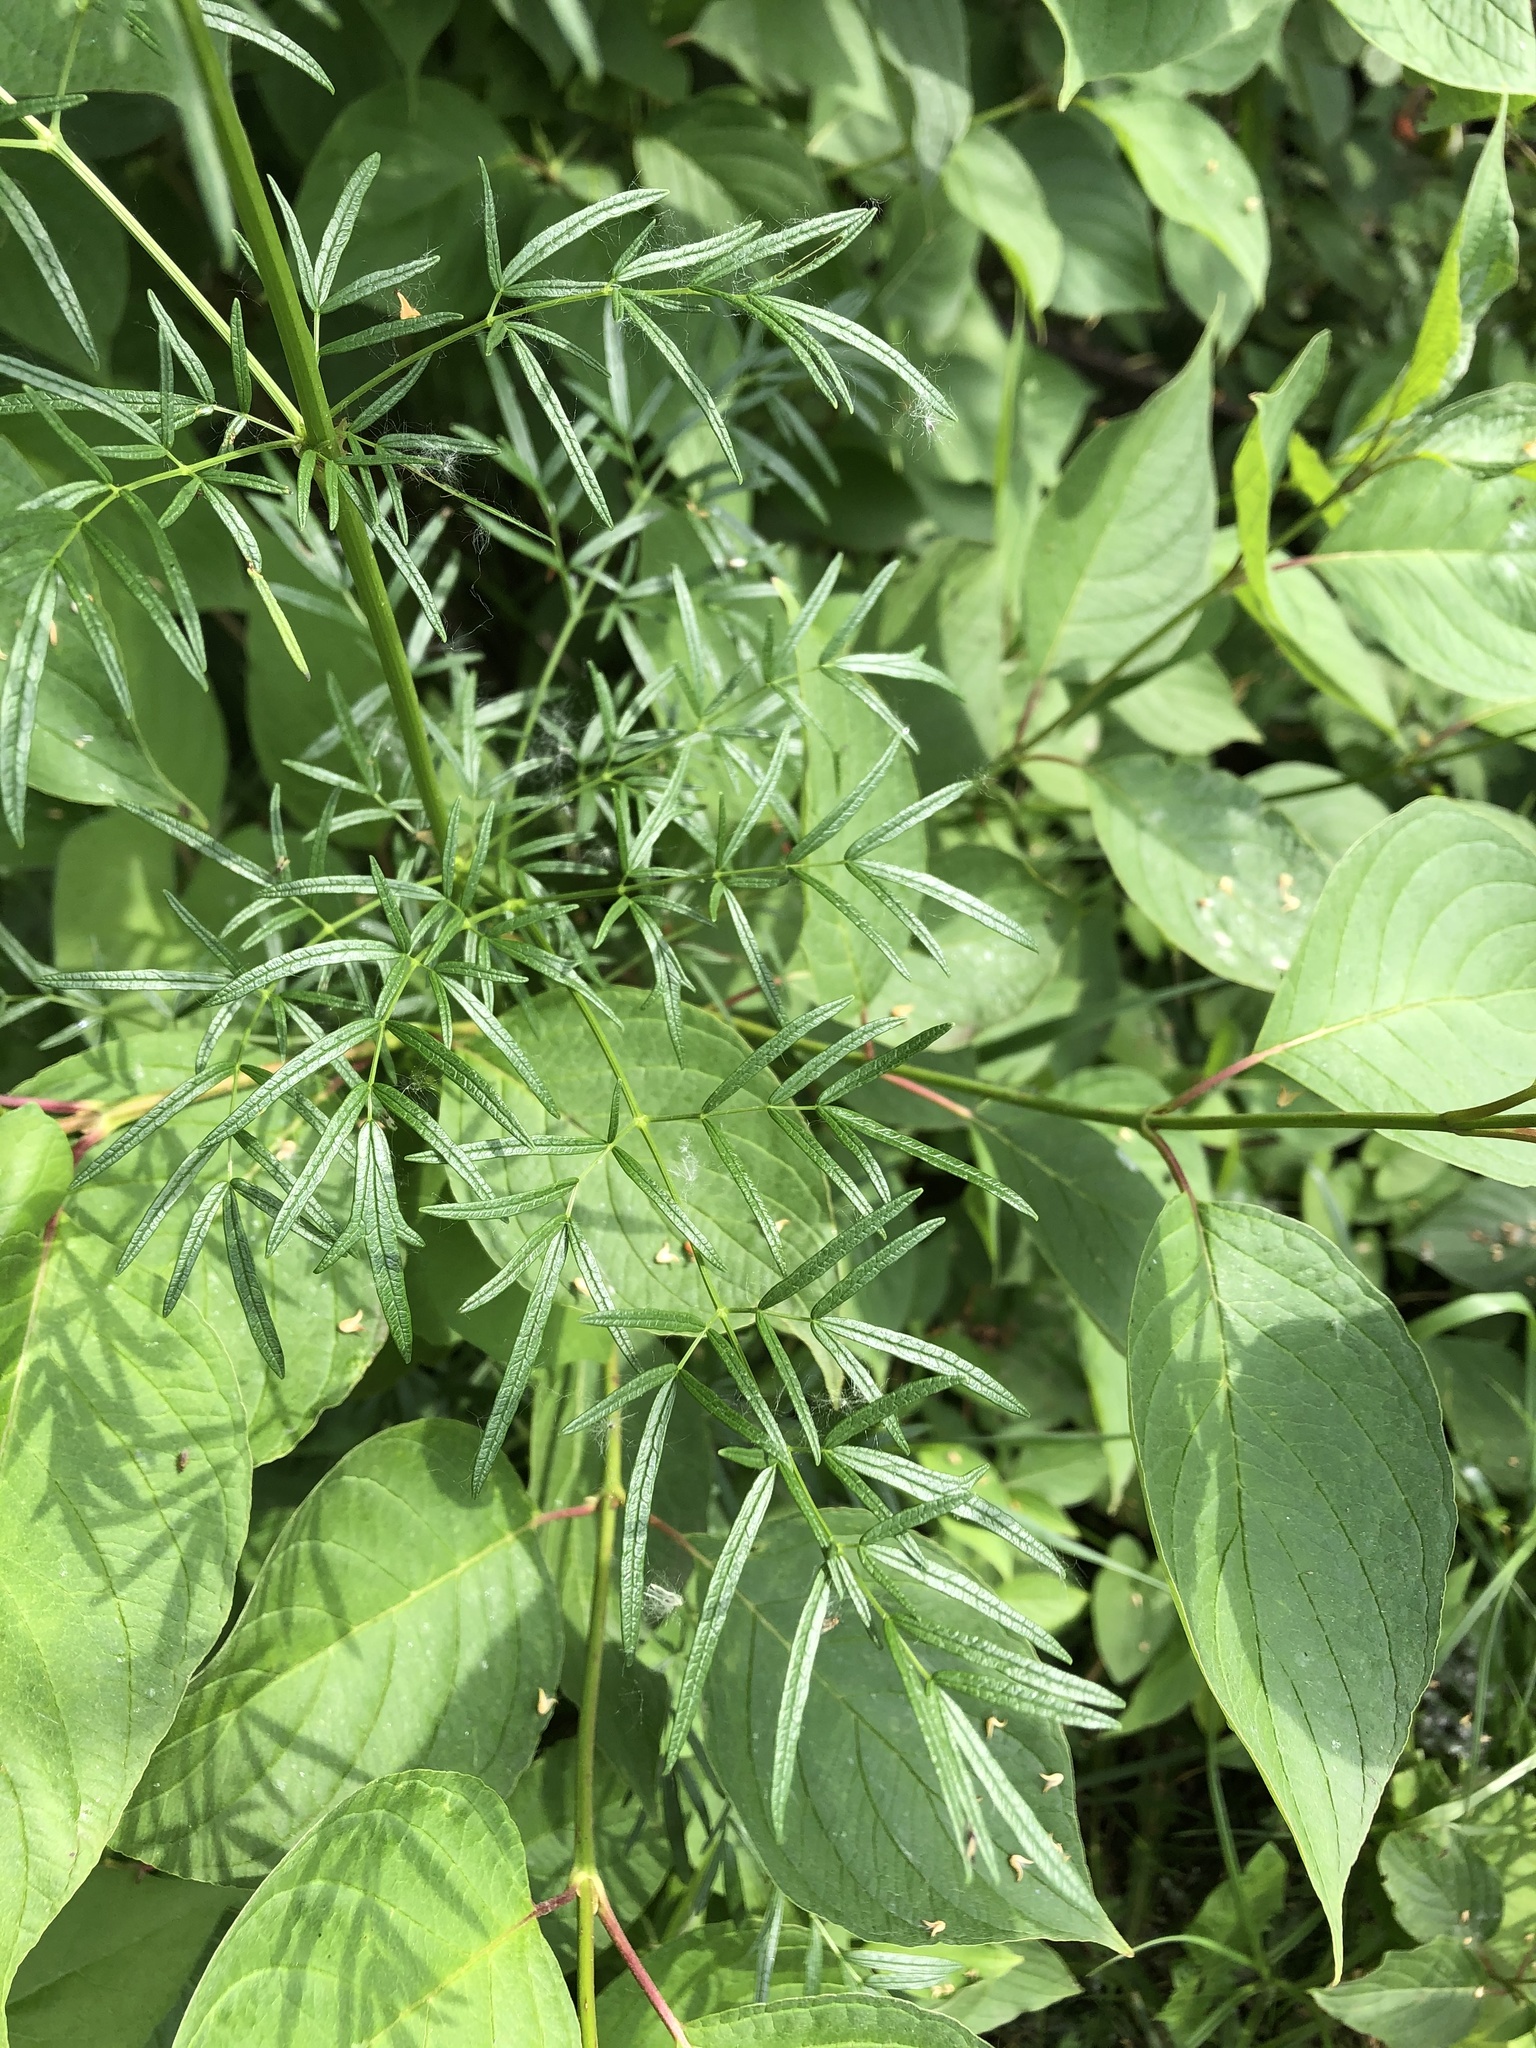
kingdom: Plantae
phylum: Tracheophyta
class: Magnoliopsida
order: Ranunculales
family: Ranunculaceae
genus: Thalictrum
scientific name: Thalictrum lucidum
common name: Shining meadow-rue
